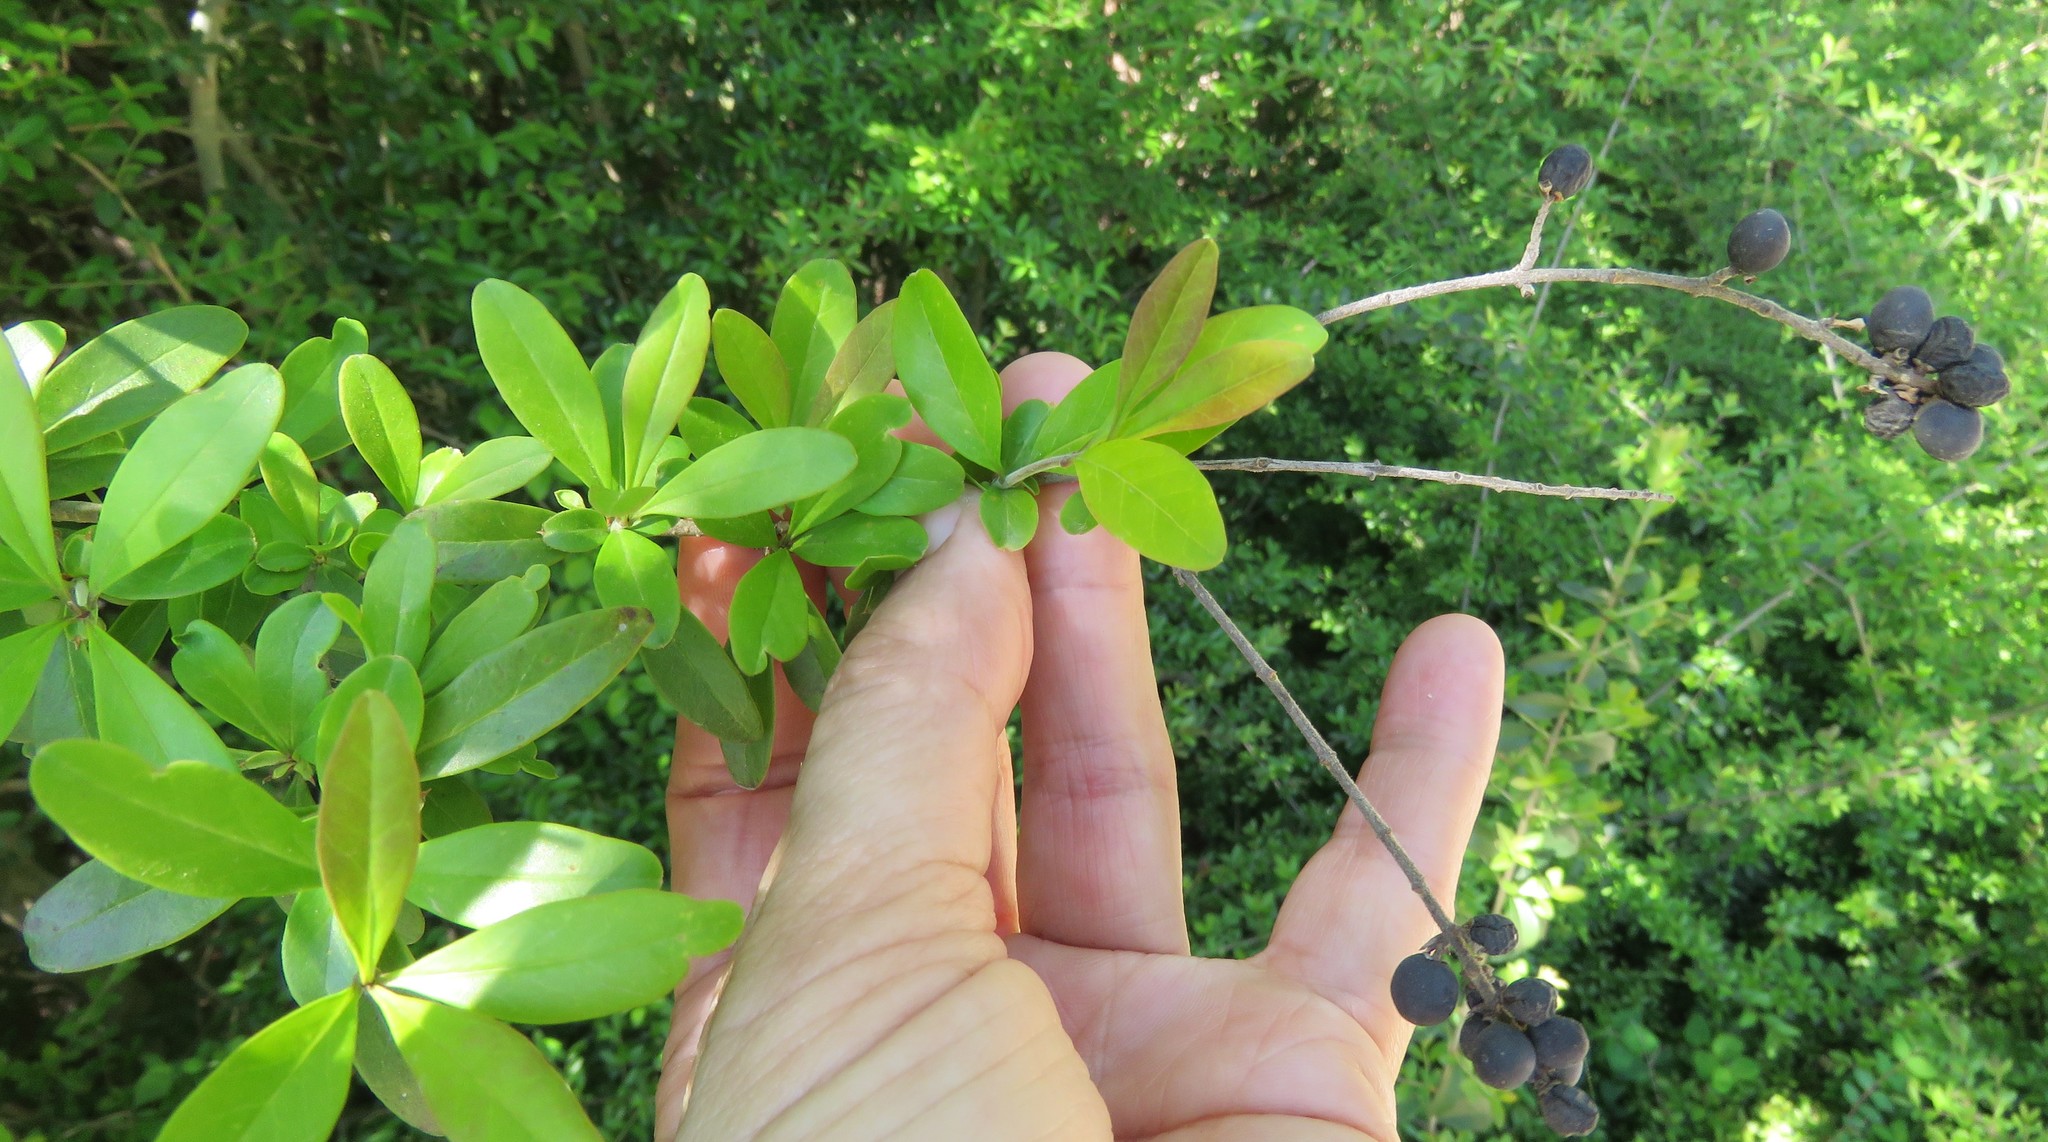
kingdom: Plantae
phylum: Tracheophyta
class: Magnoliopsida
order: Lamiales
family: Oleaceae
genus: Ligustrum
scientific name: Ligustrum quihoui
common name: Waxyleaf privet
